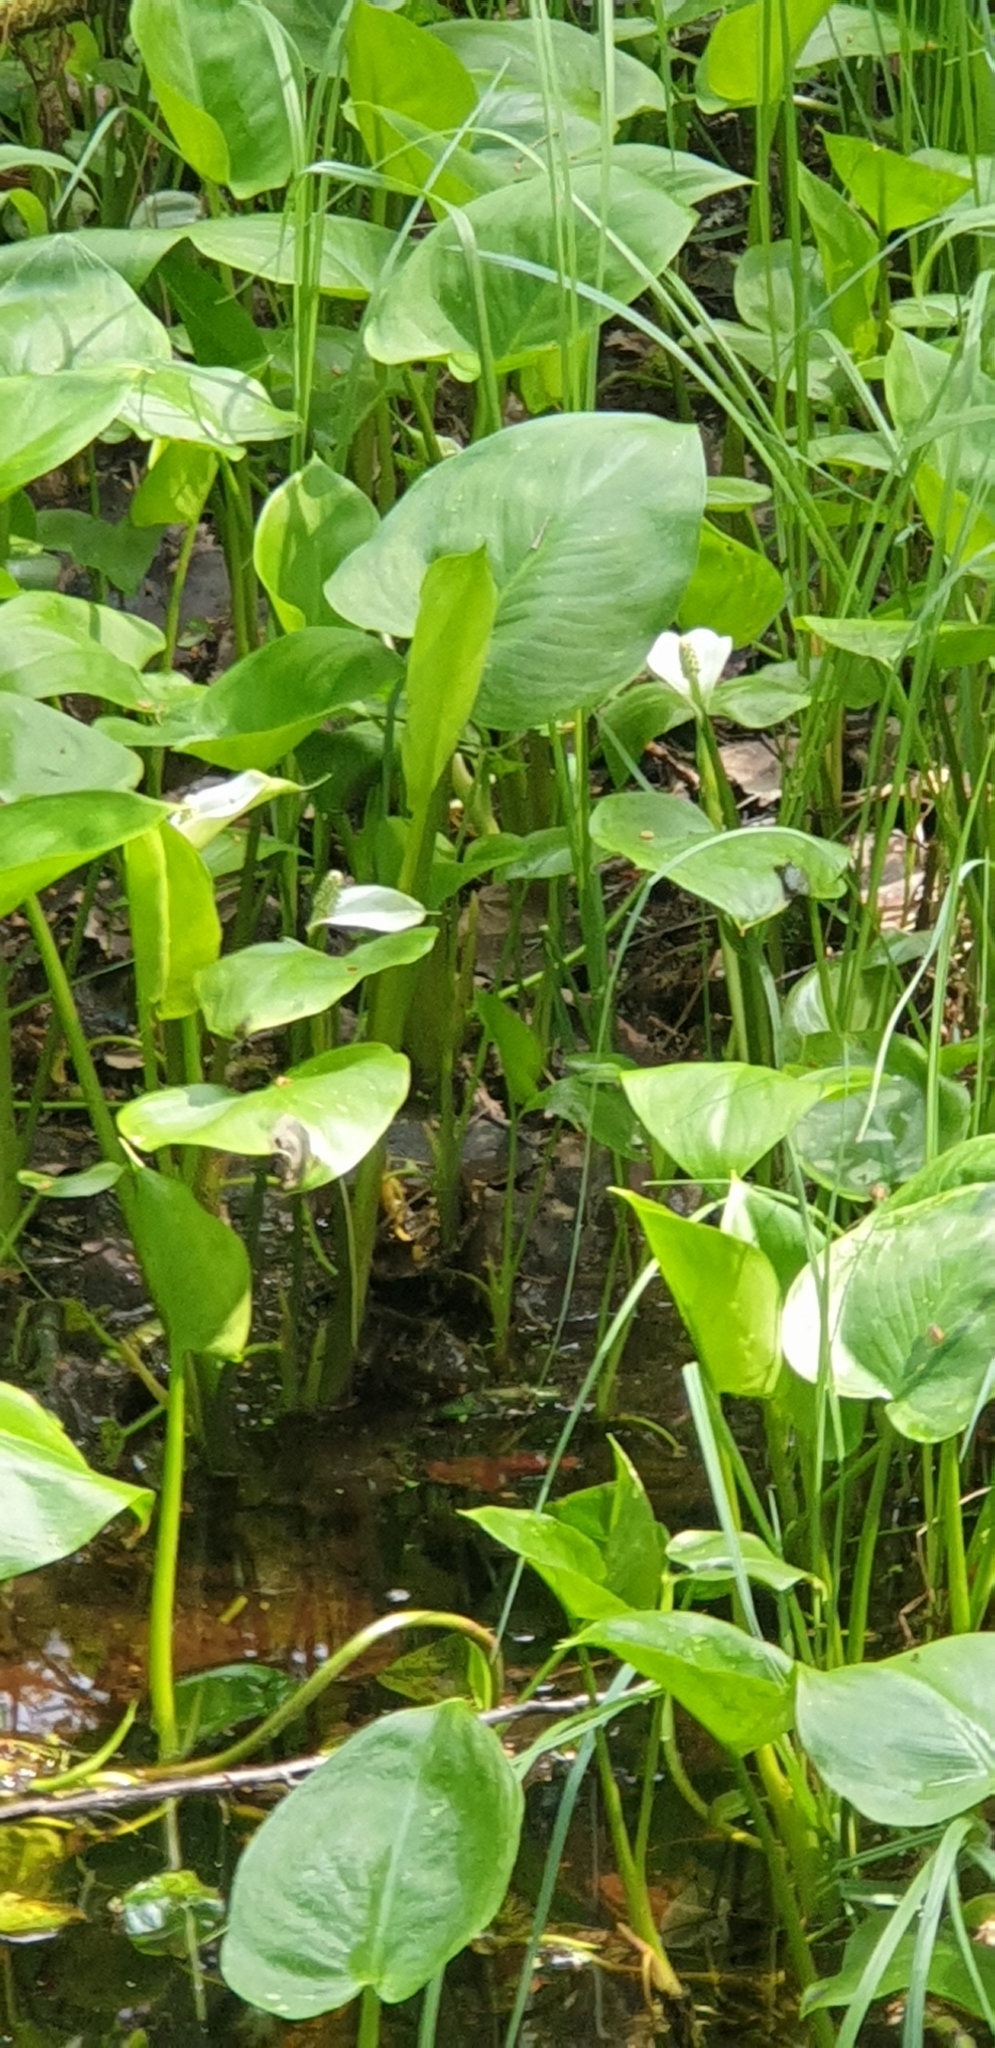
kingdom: Plantae
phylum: Tracheophyta
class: Liliopsida
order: Alismatales
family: Araceae
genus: Calla
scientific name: Calla palustris
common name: Bog arum
